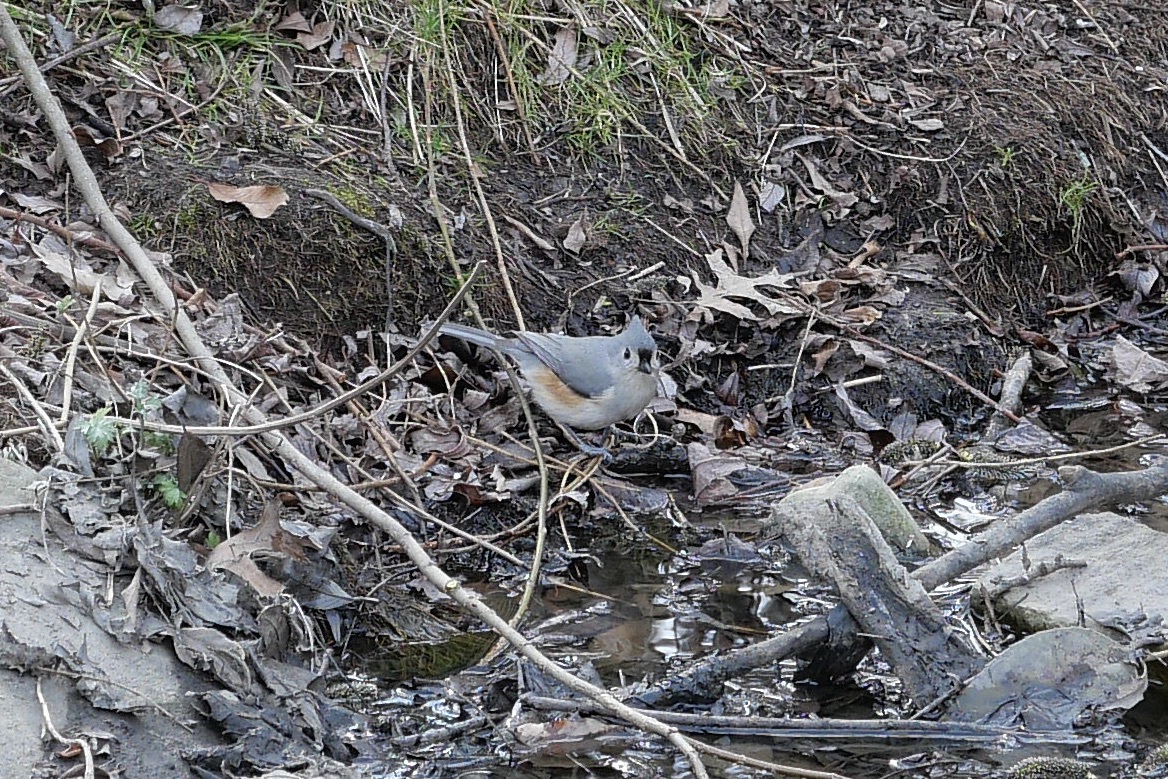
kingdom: Animalia
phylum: Chordata
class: Aves
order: Passeriformes
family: Paridae
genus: Baeolophus
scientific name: Baeolophus bicolor
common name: Tufted titmouse
